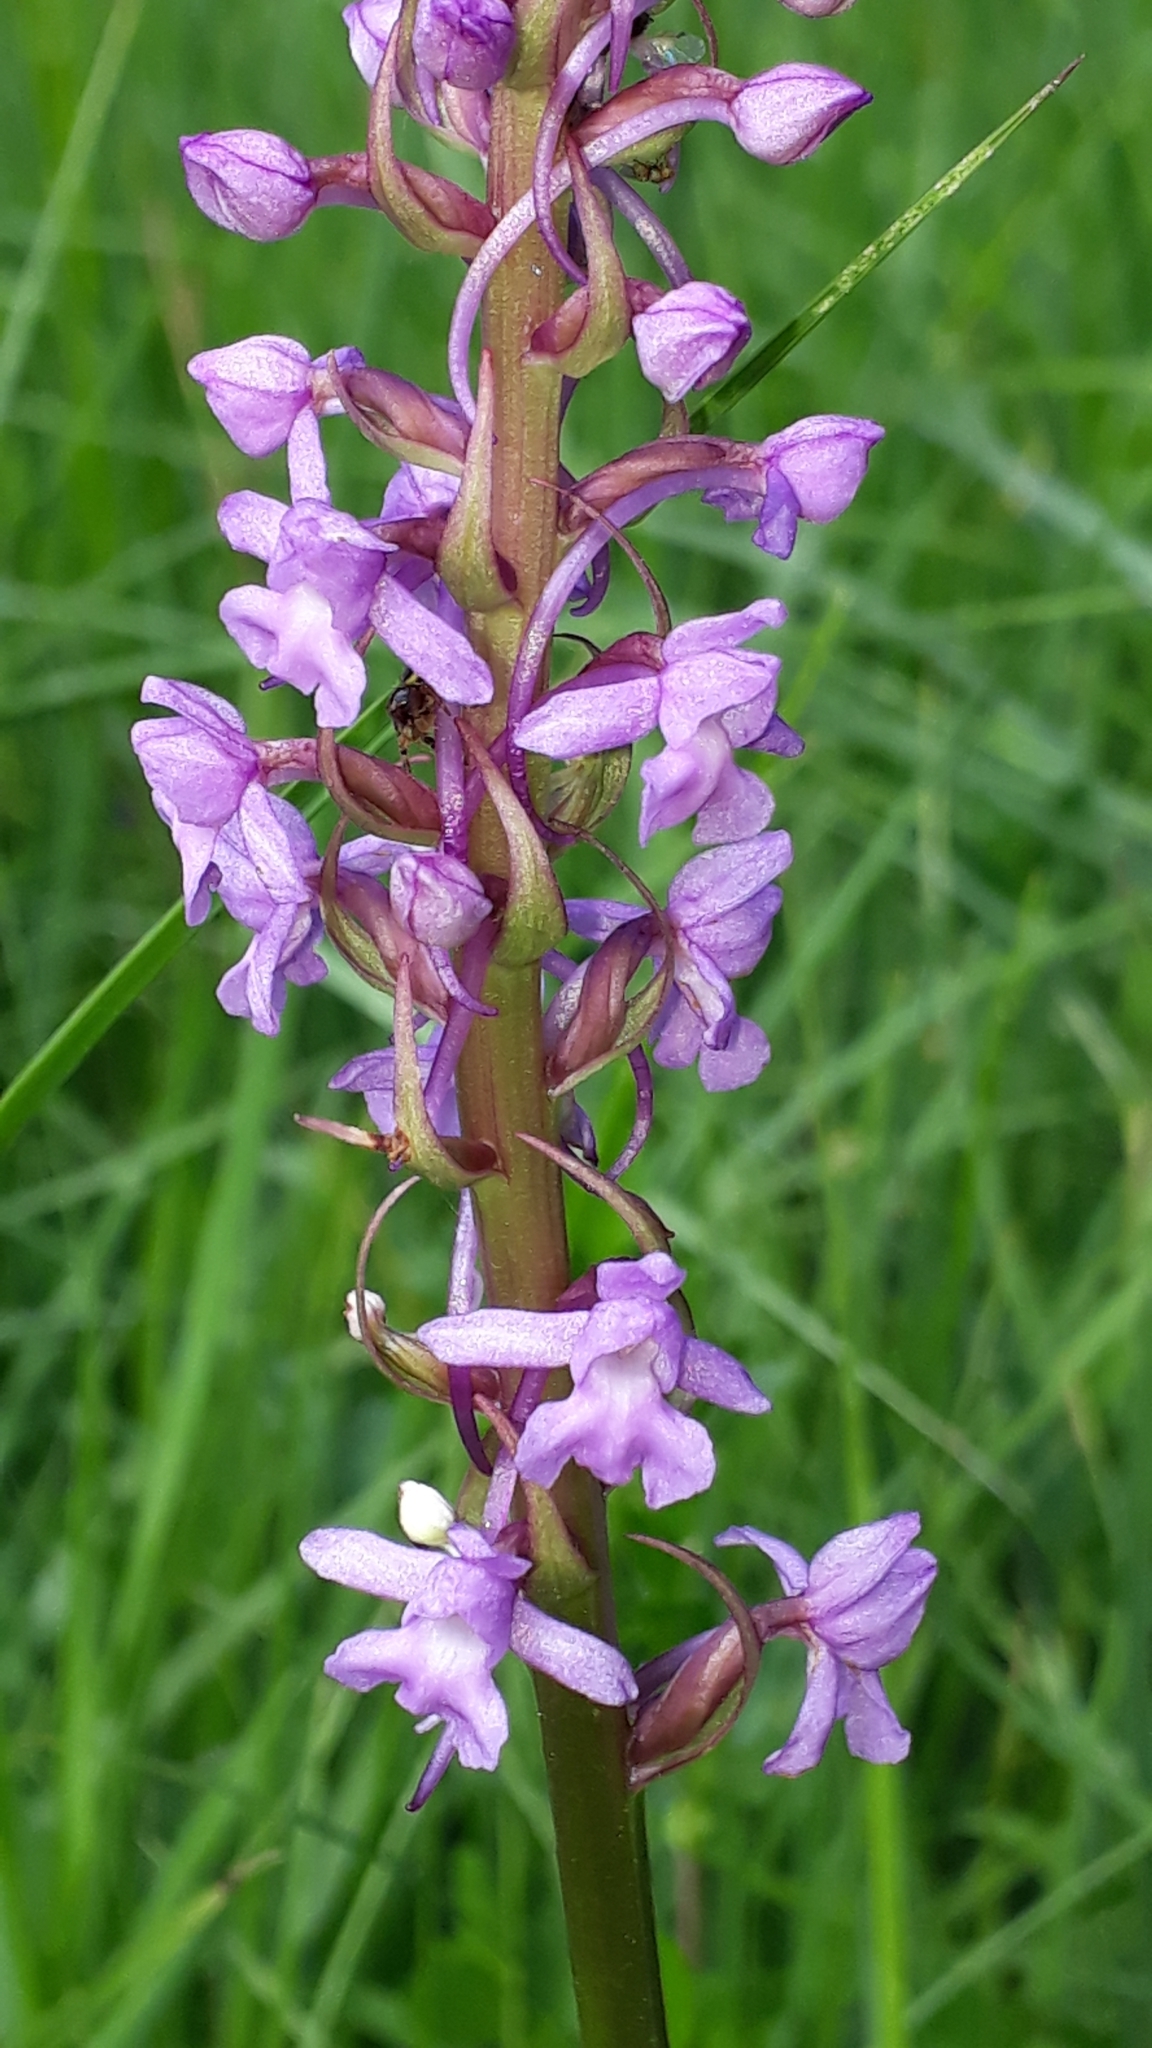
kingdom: Plantae
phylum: Tracheophyta
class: Liliopsida
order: Asparagales
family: Orchidaceae
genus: Gymnadenia
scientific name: Gymnadenia conopsea
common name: Fragrant orchid
